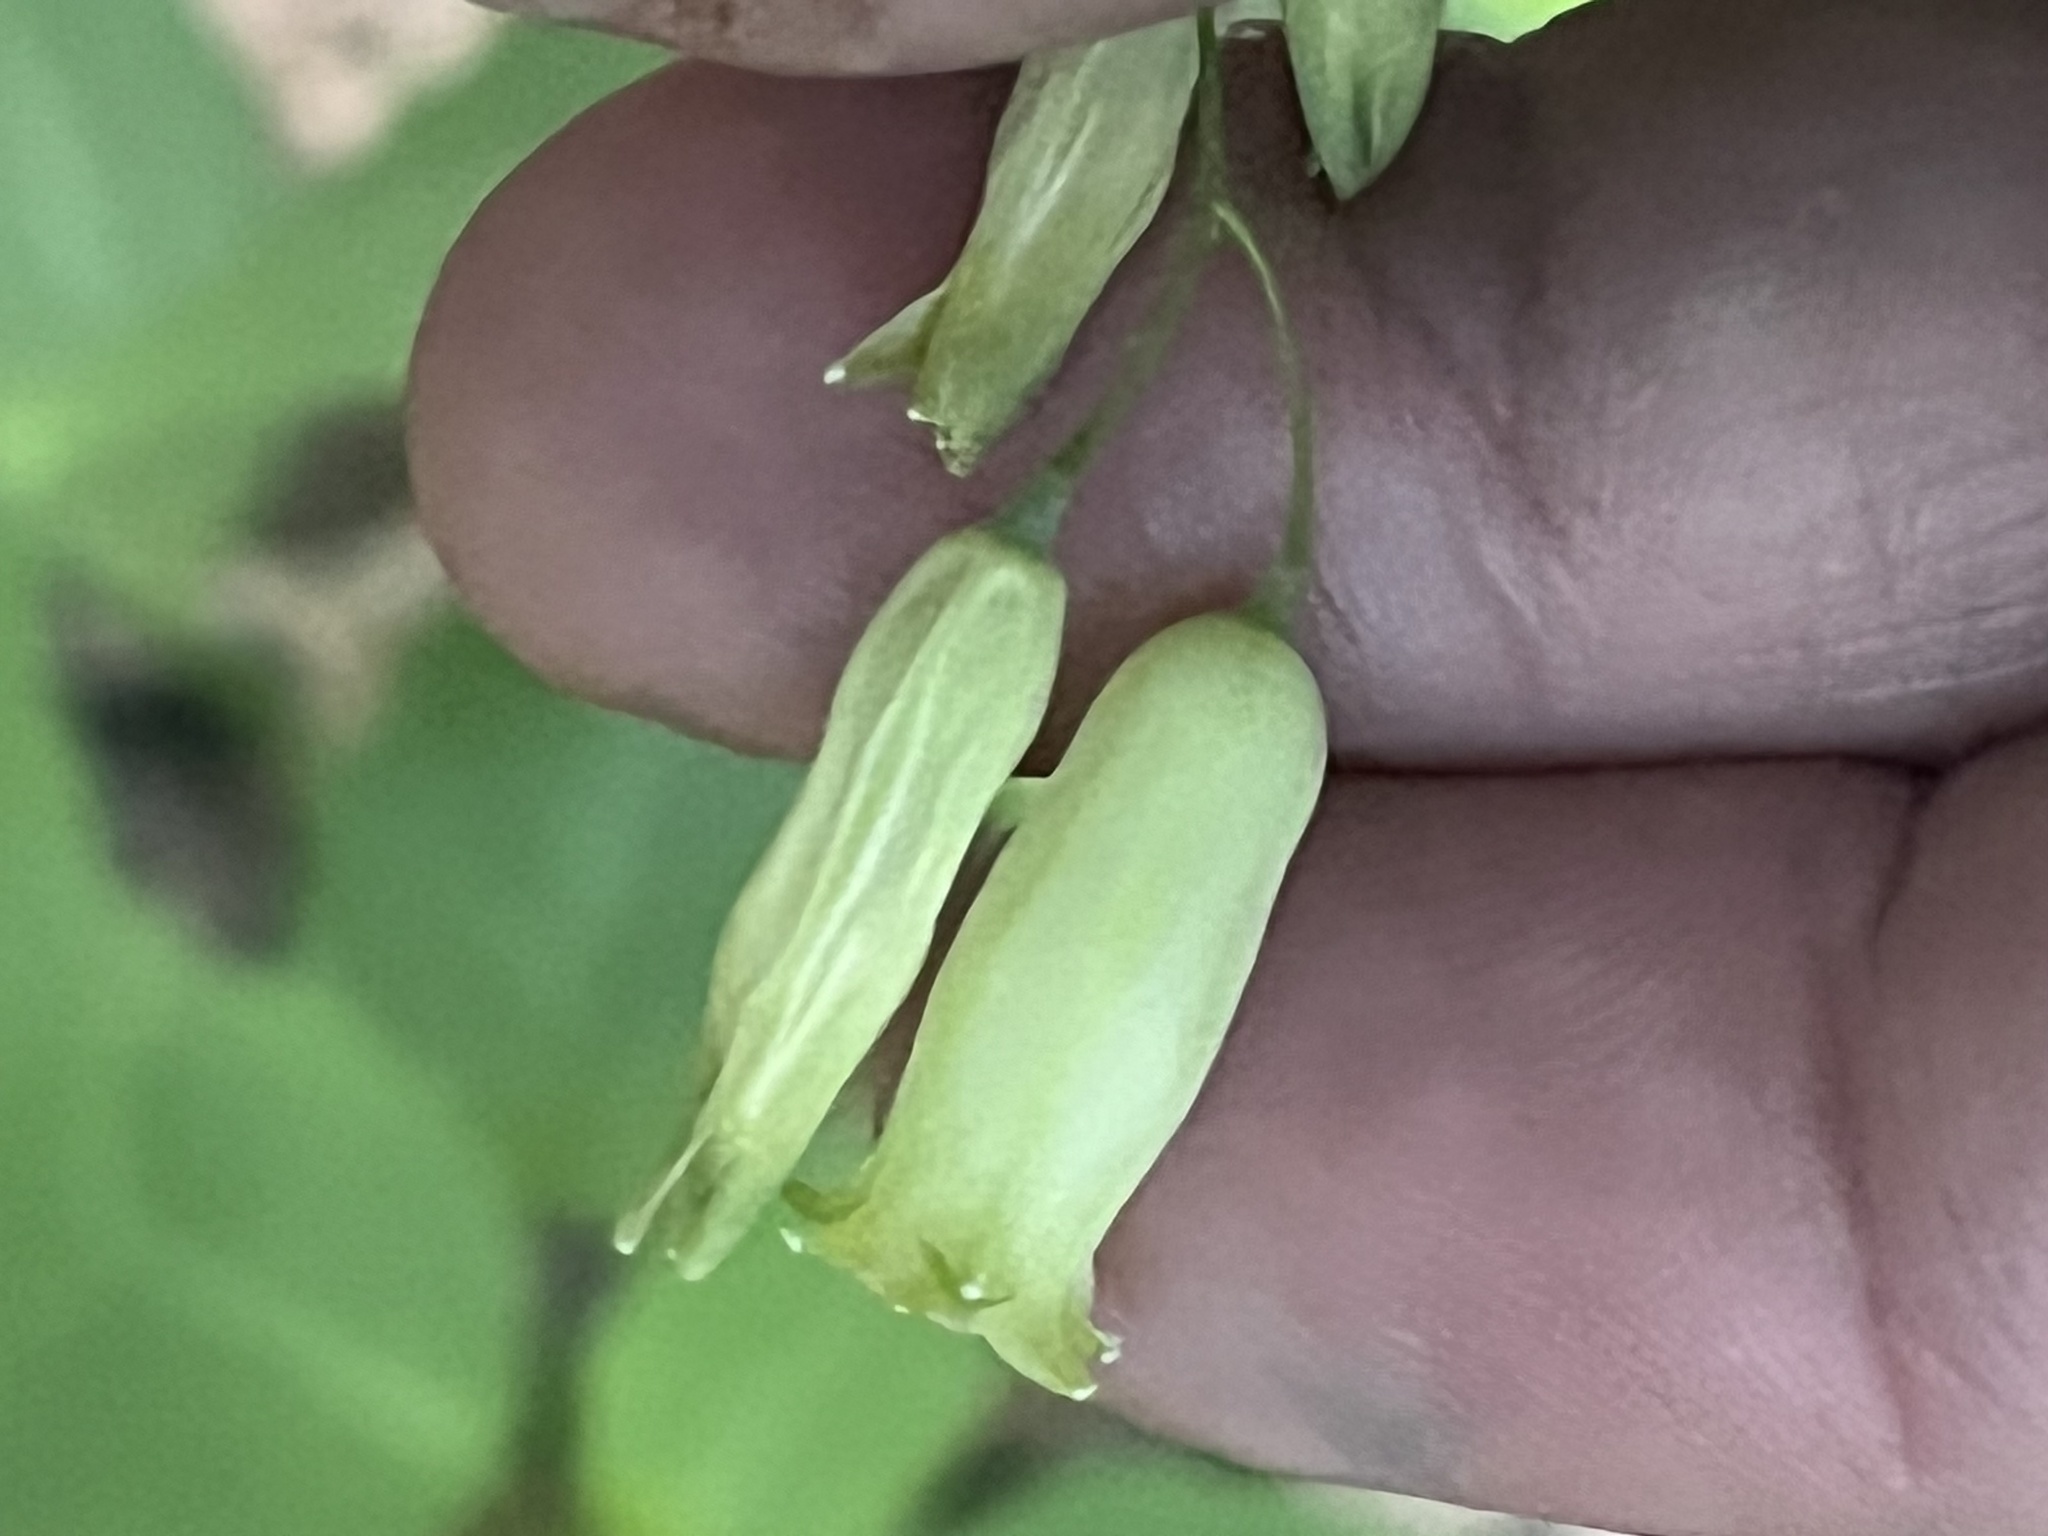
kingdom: Plantae
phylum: Tracheophyta
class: Liliopsida
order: Asparagales
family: Asparagaceae
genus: Polygonatum
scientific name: Polygonatum biflorum
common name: American solomon's-seal
